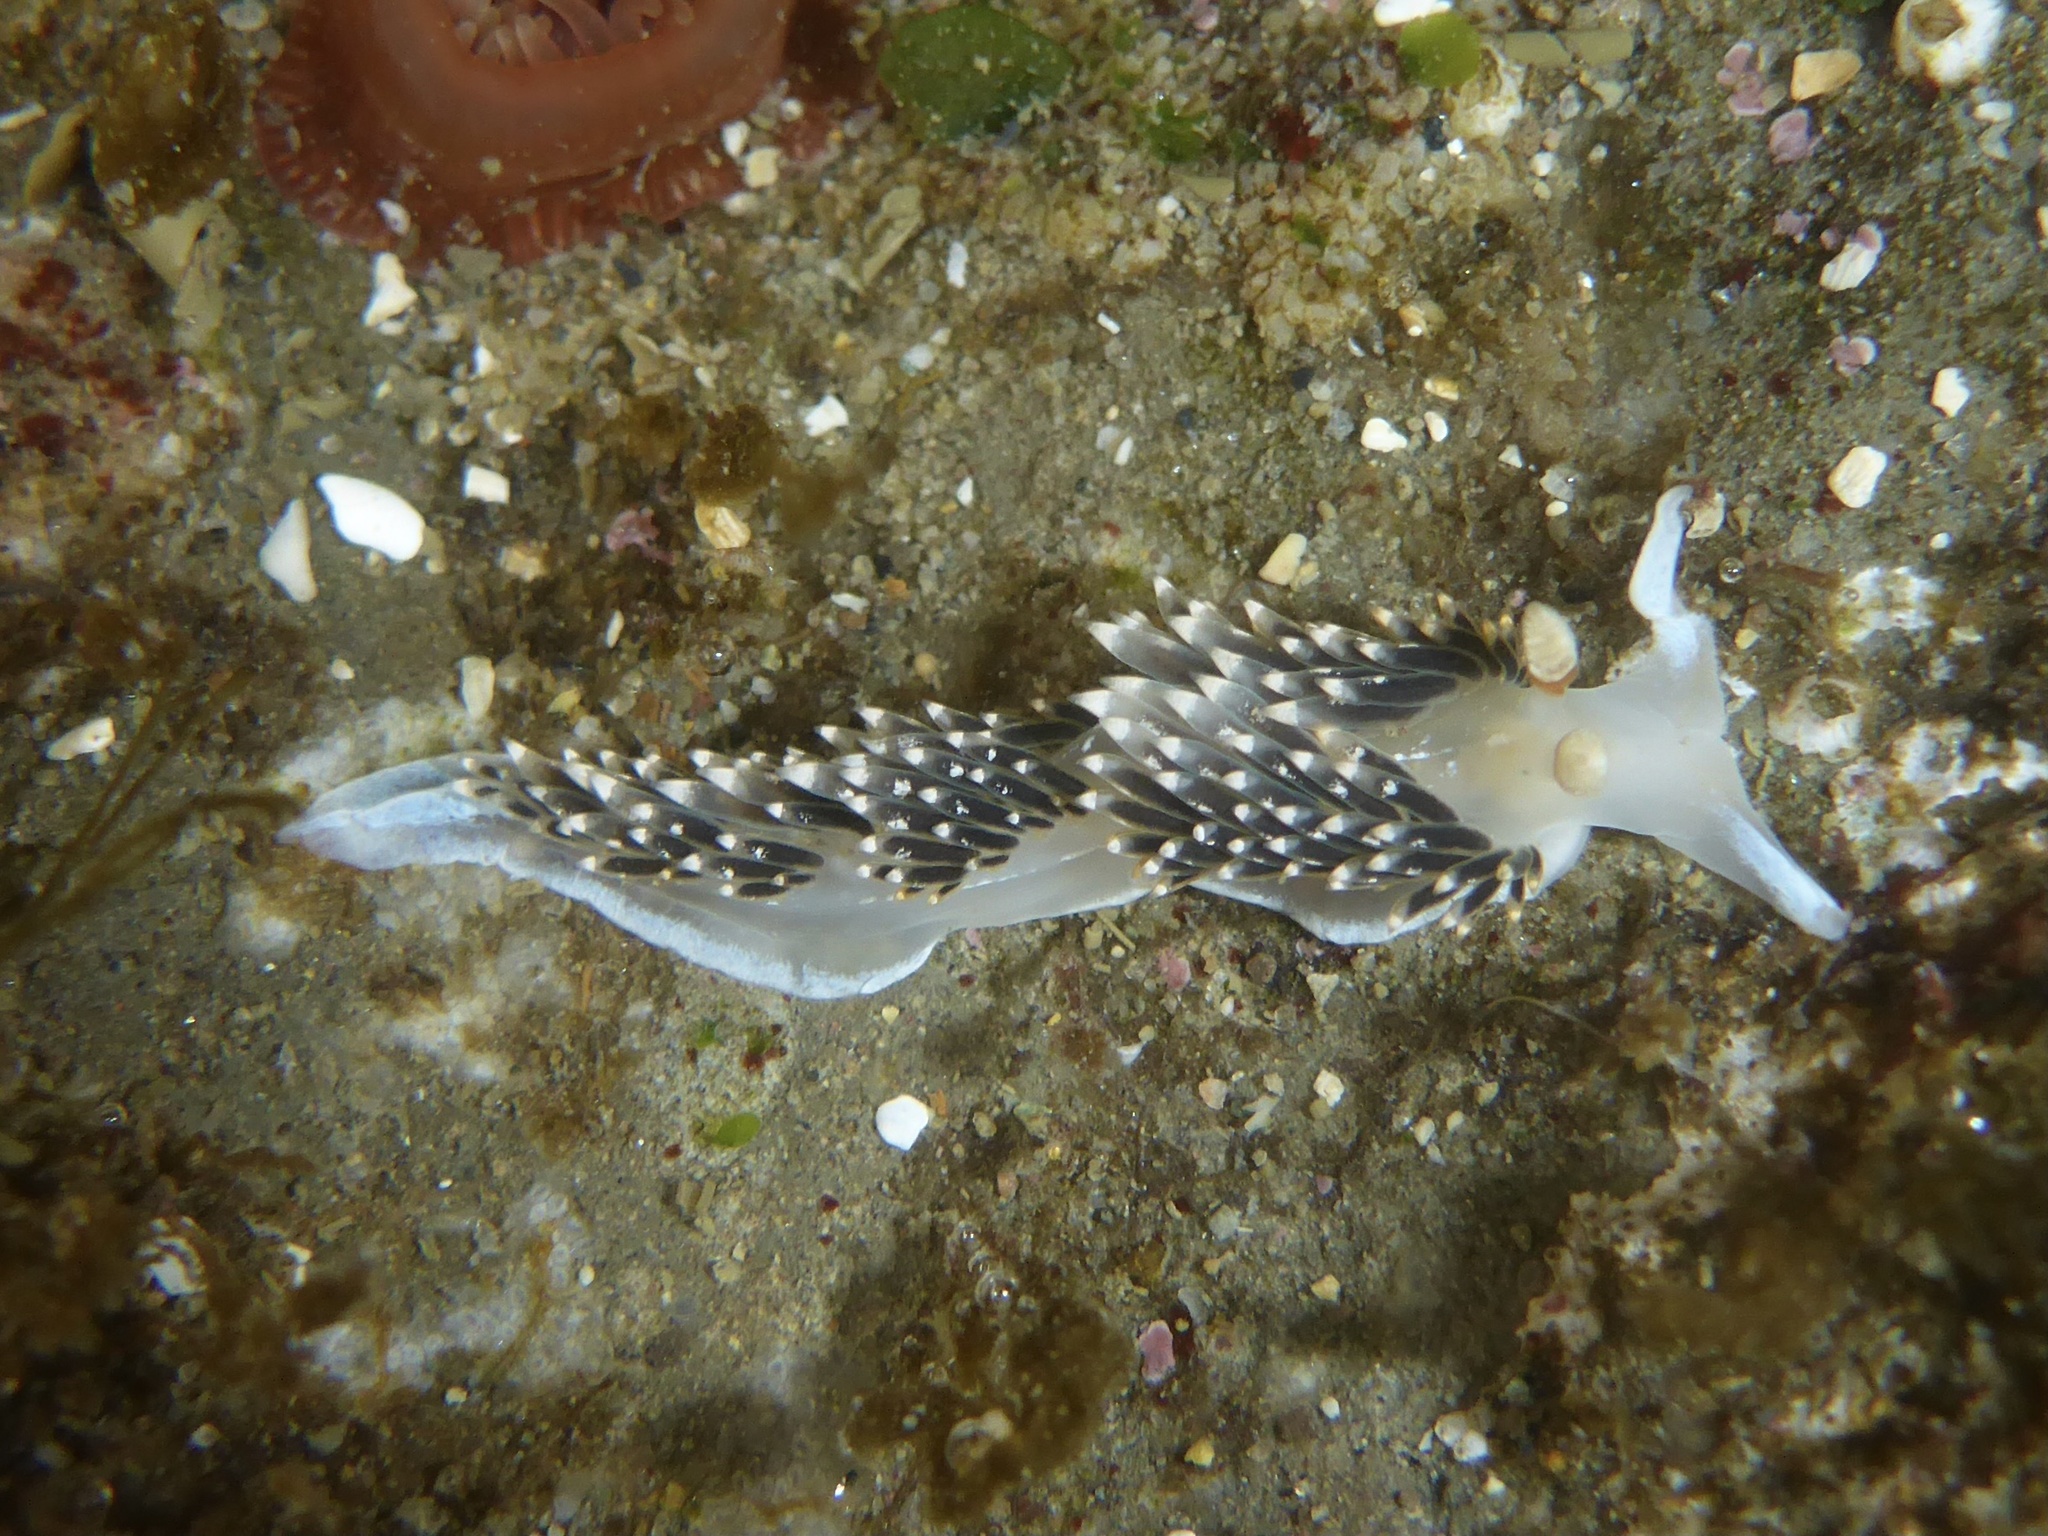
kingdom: Animalia
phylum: Mollusca
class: Gastropoda
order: Nudibranchia
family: Facelinidae
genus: Phidiana
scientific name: Phidiana hiltoni
